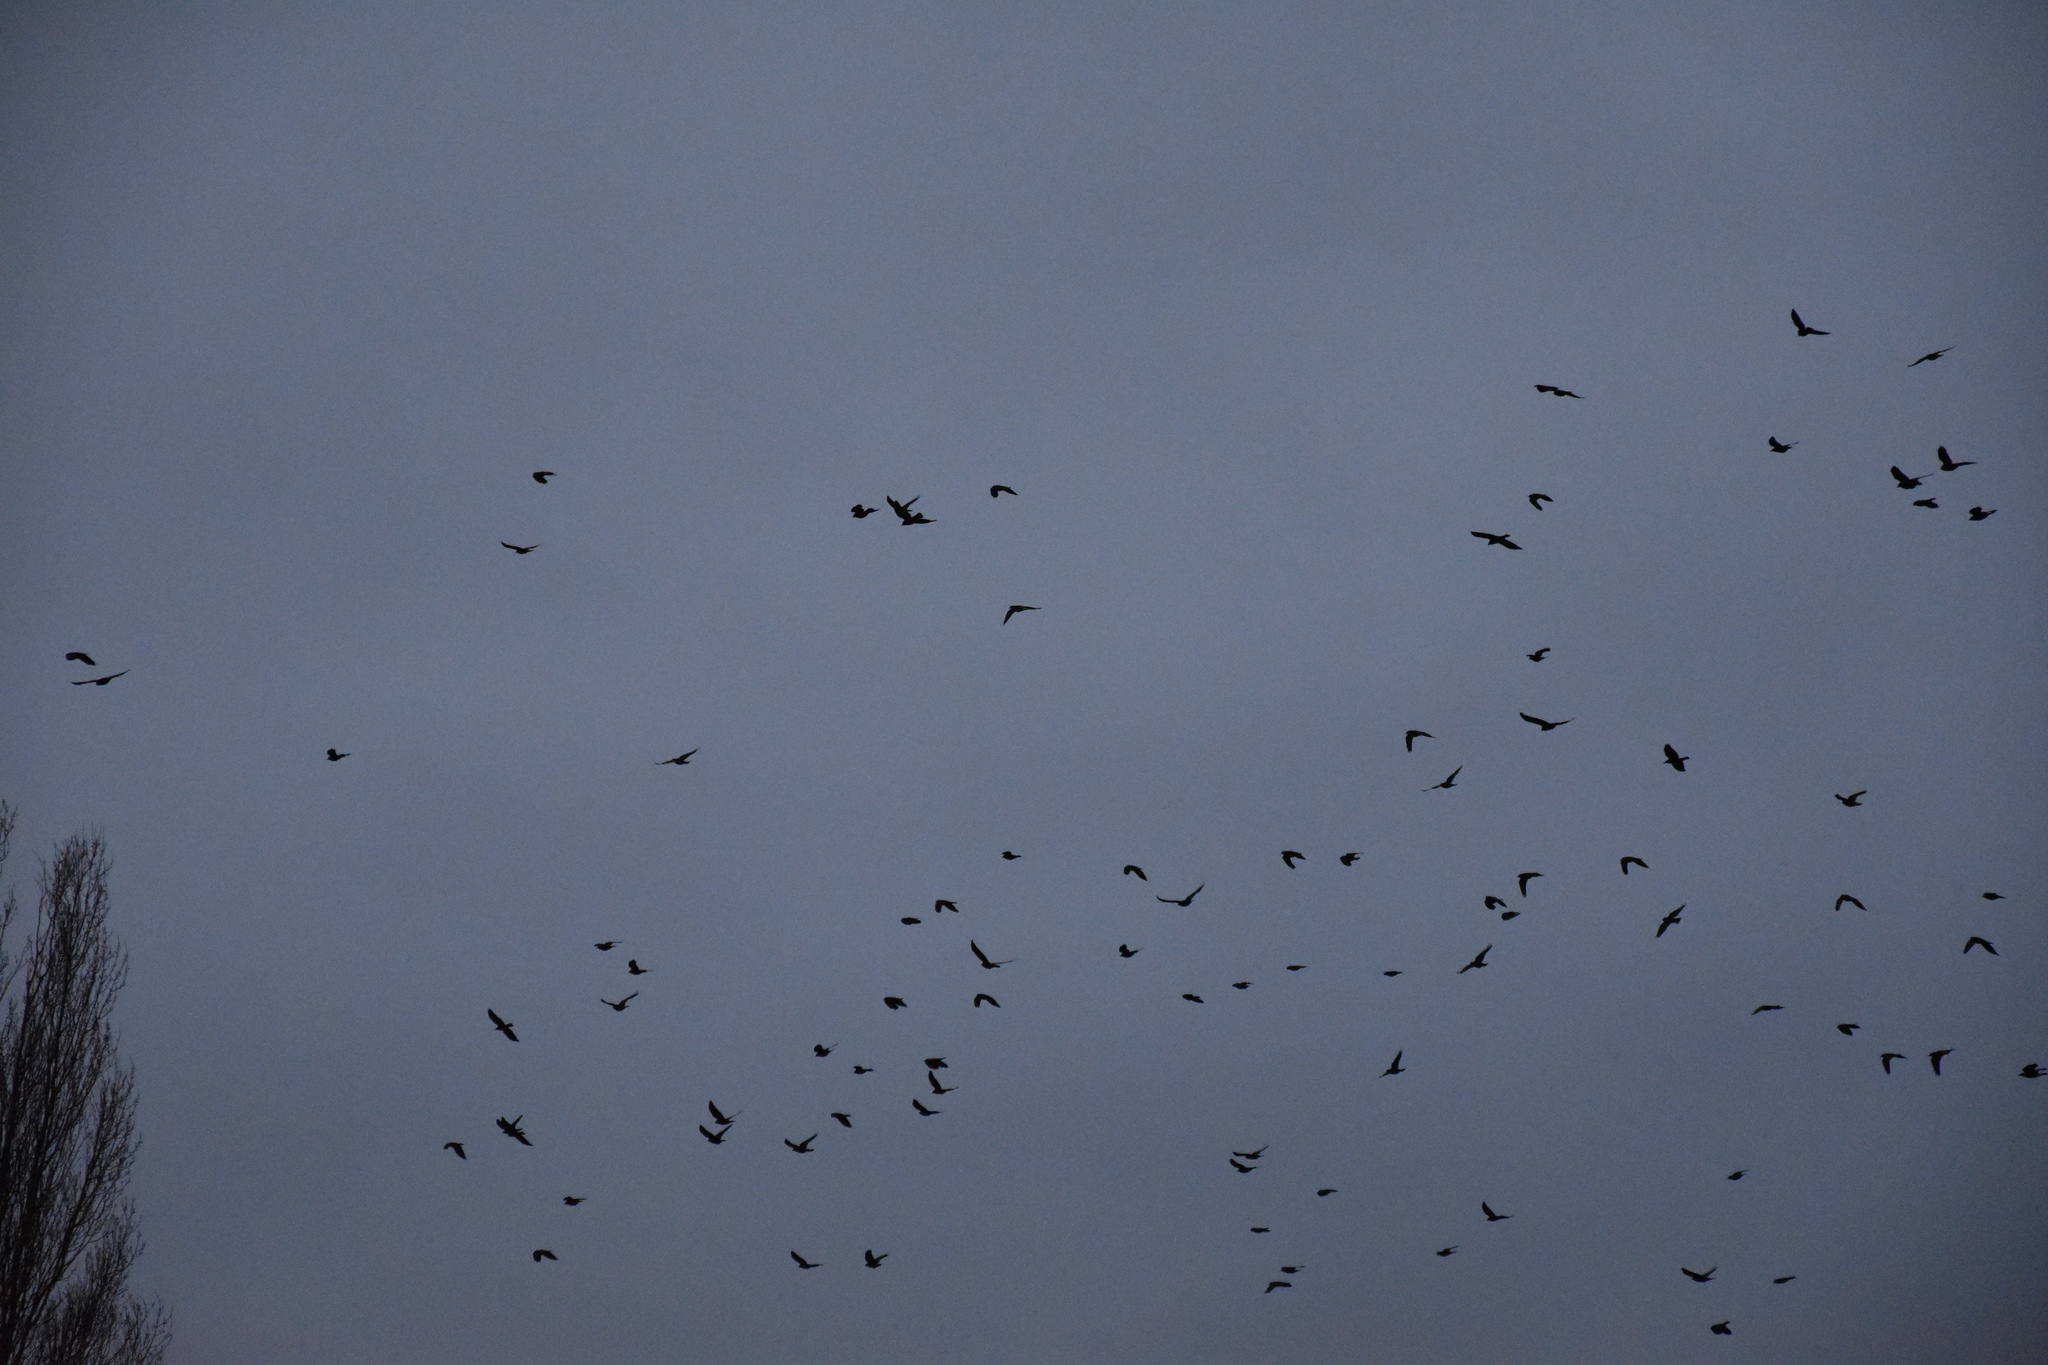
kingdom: Animalia
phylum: Chordata
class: Aves
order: Passeriformes
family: Corvidae
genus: Coloeus
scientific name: Coloeus monedula
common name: Western jackdaw
